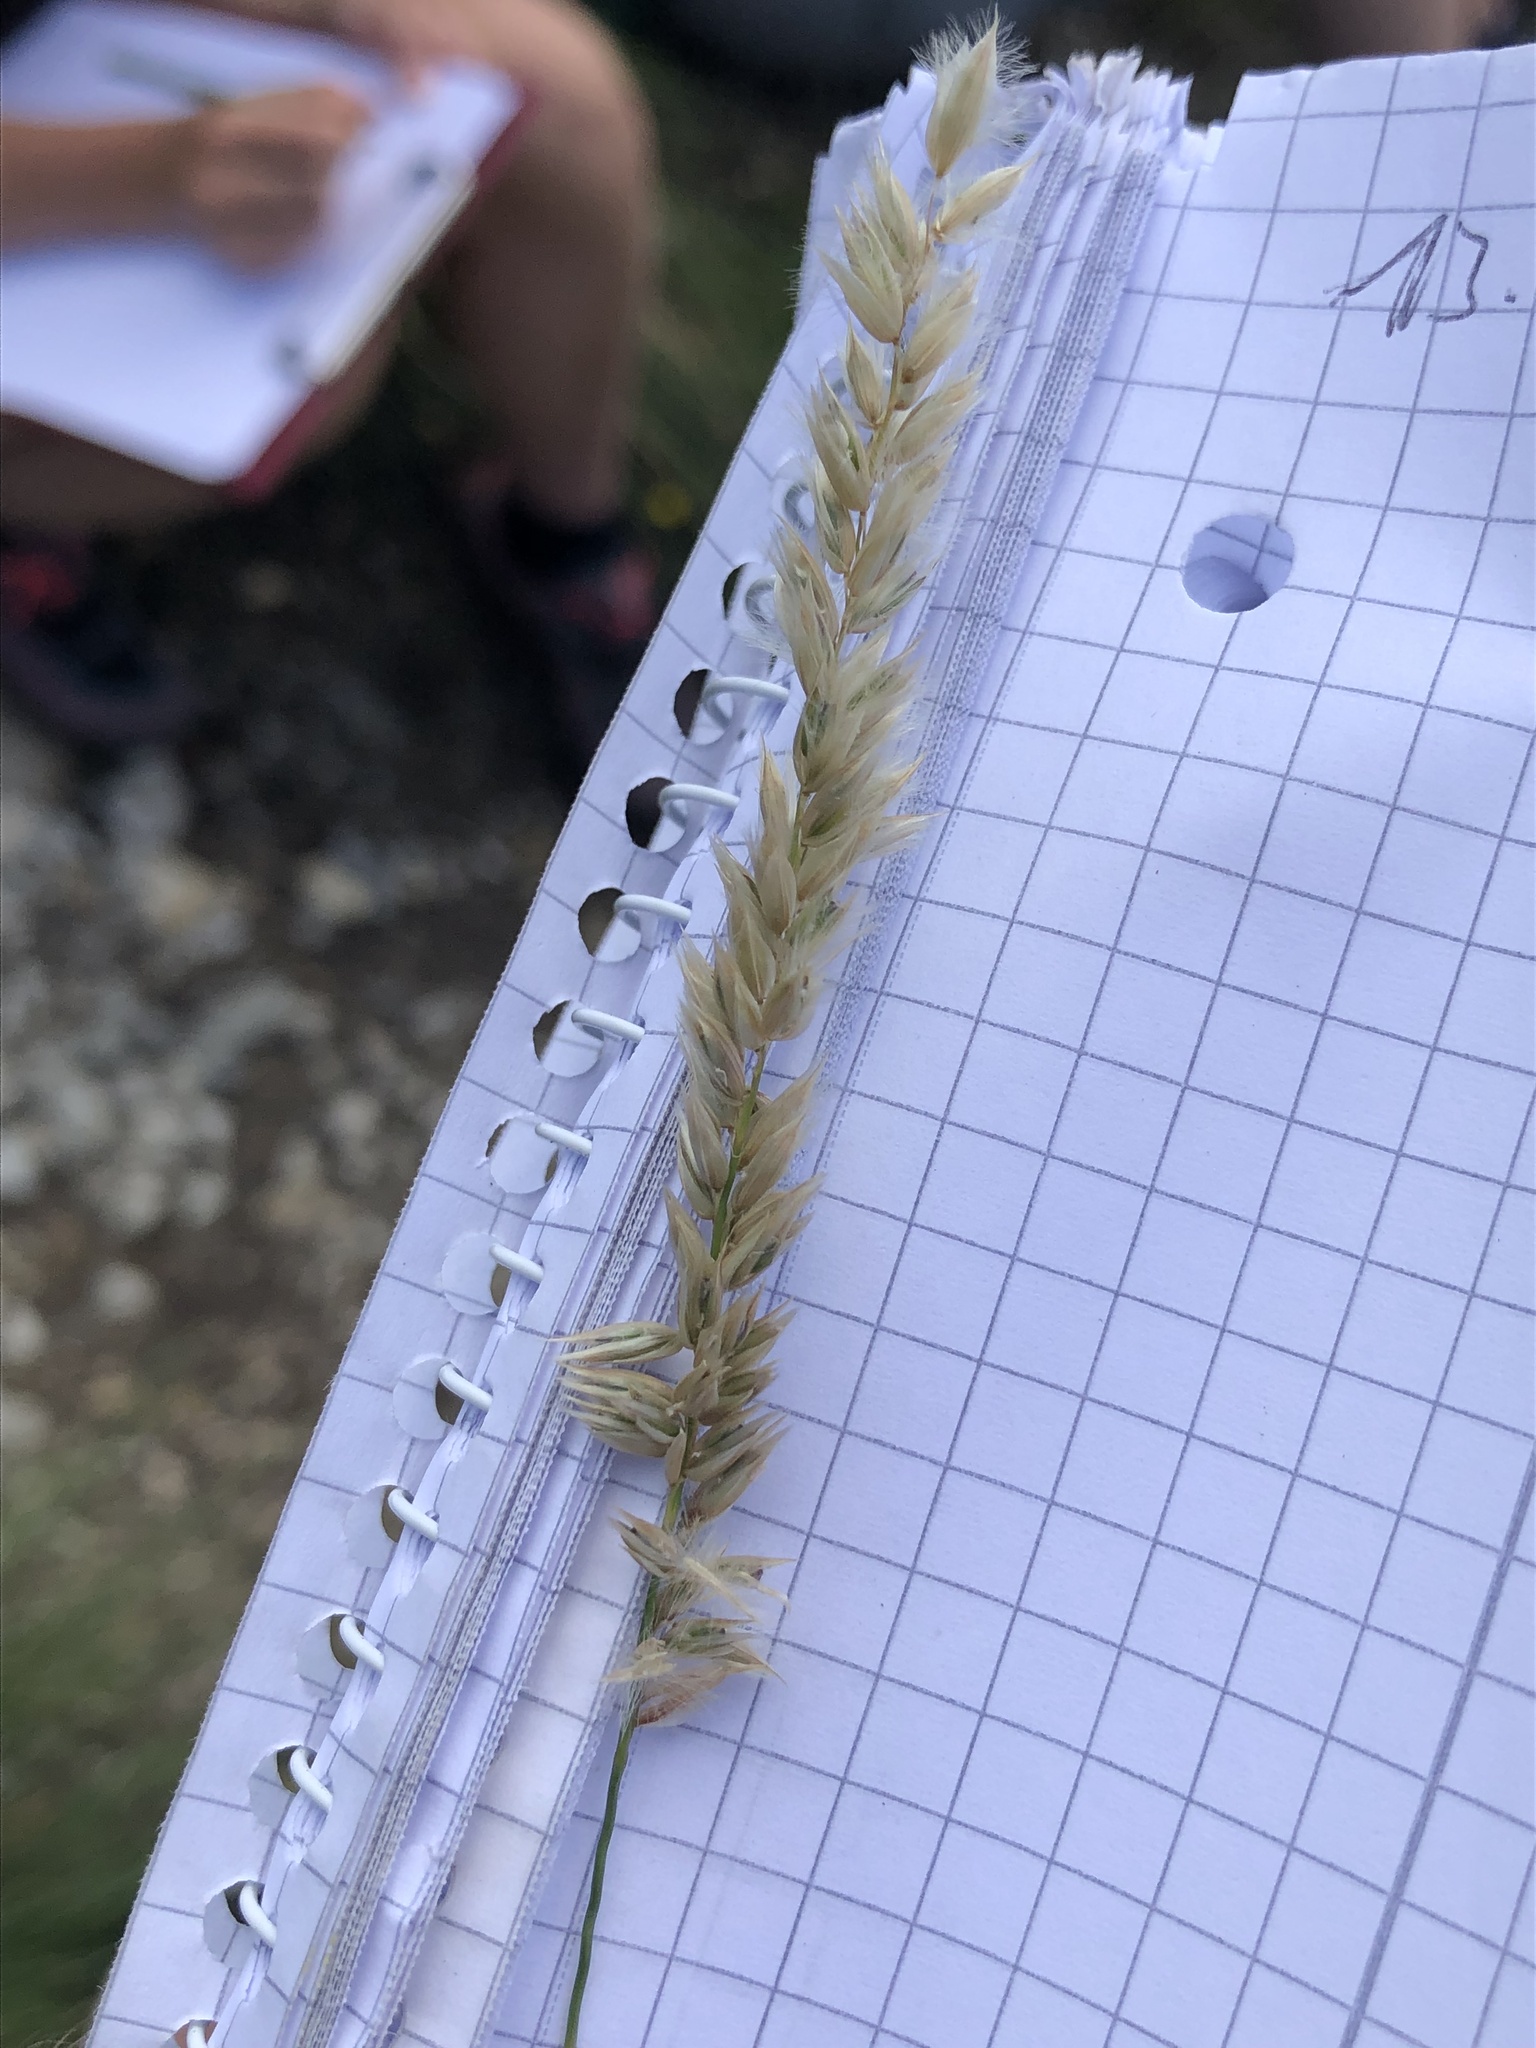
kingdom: Plantae
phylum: Tracheophyta
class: Liliopsida
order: Poales
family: Poaceae
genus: Melica
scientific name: Melica ciliata
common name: Hairy melicgrass
